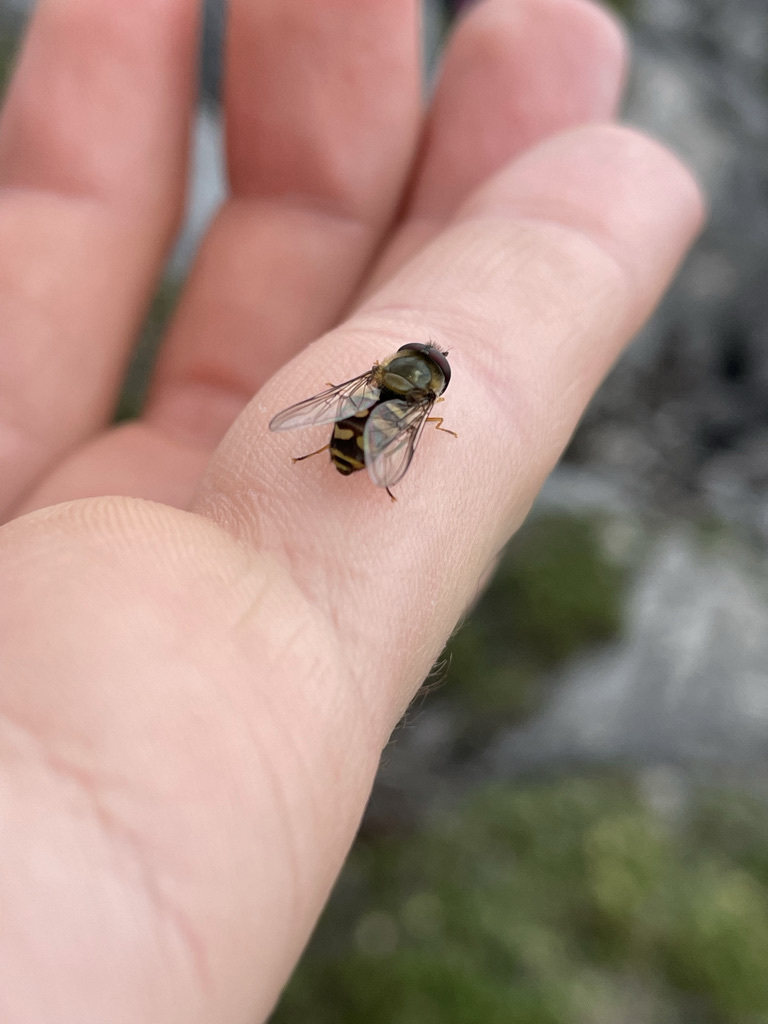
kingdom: Animalia
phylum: Arthropoda
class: Insecta
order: Diptera
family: Syrphidae
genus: Lapposyrphus
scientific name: Lapposyrphus lapponicus
